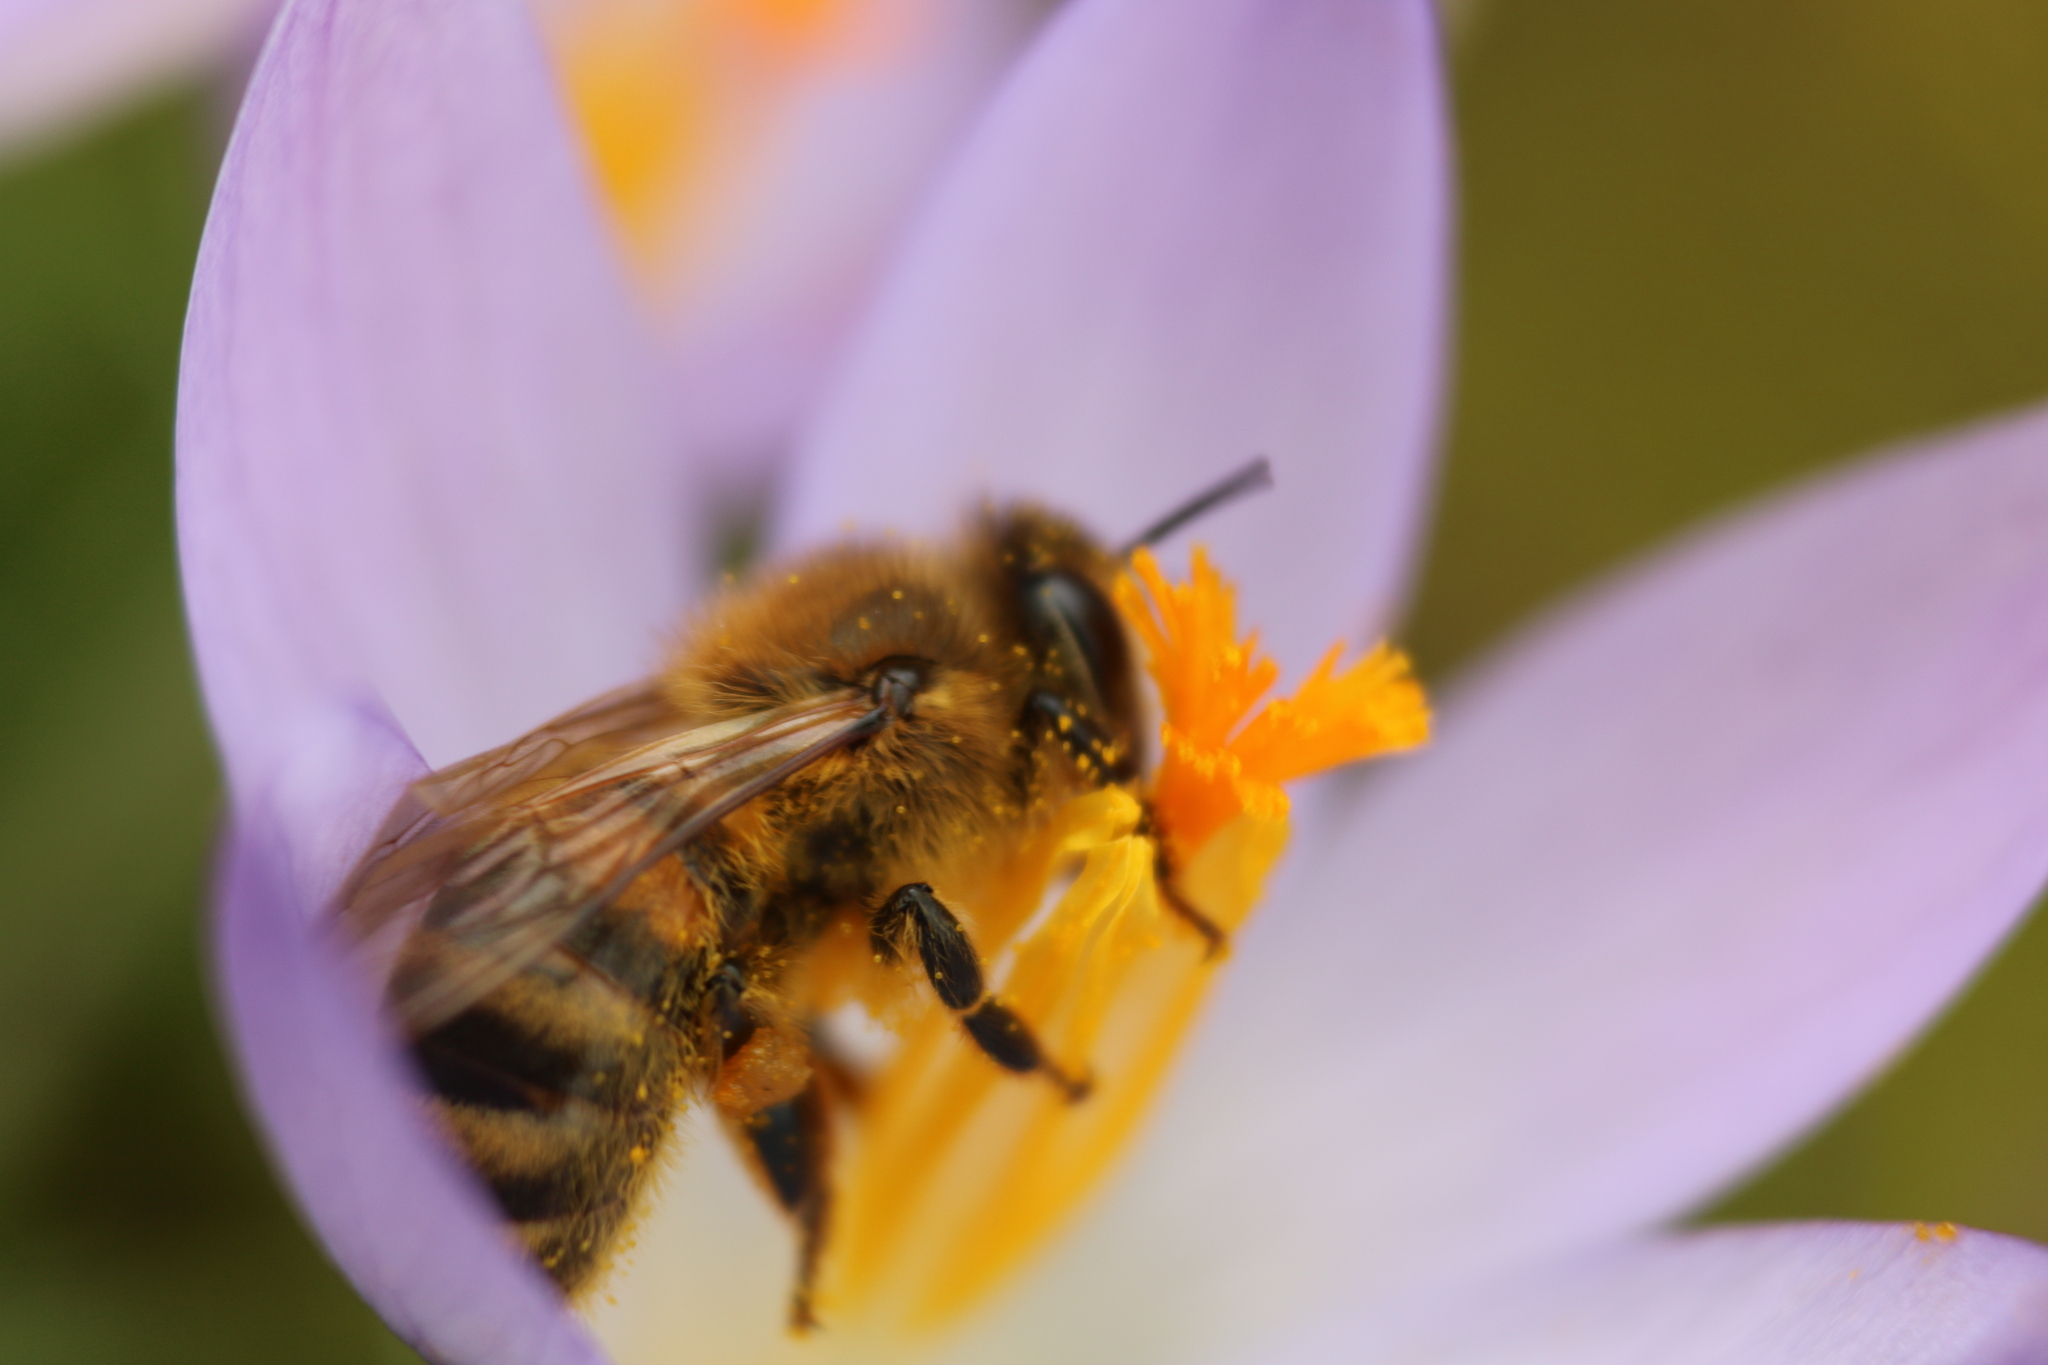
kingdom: Animalia
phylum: Arthropoda
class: Insecta
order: Hymenoptera
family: Apidae
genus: Apis
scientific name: Apis mellifera
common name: Honey bee
